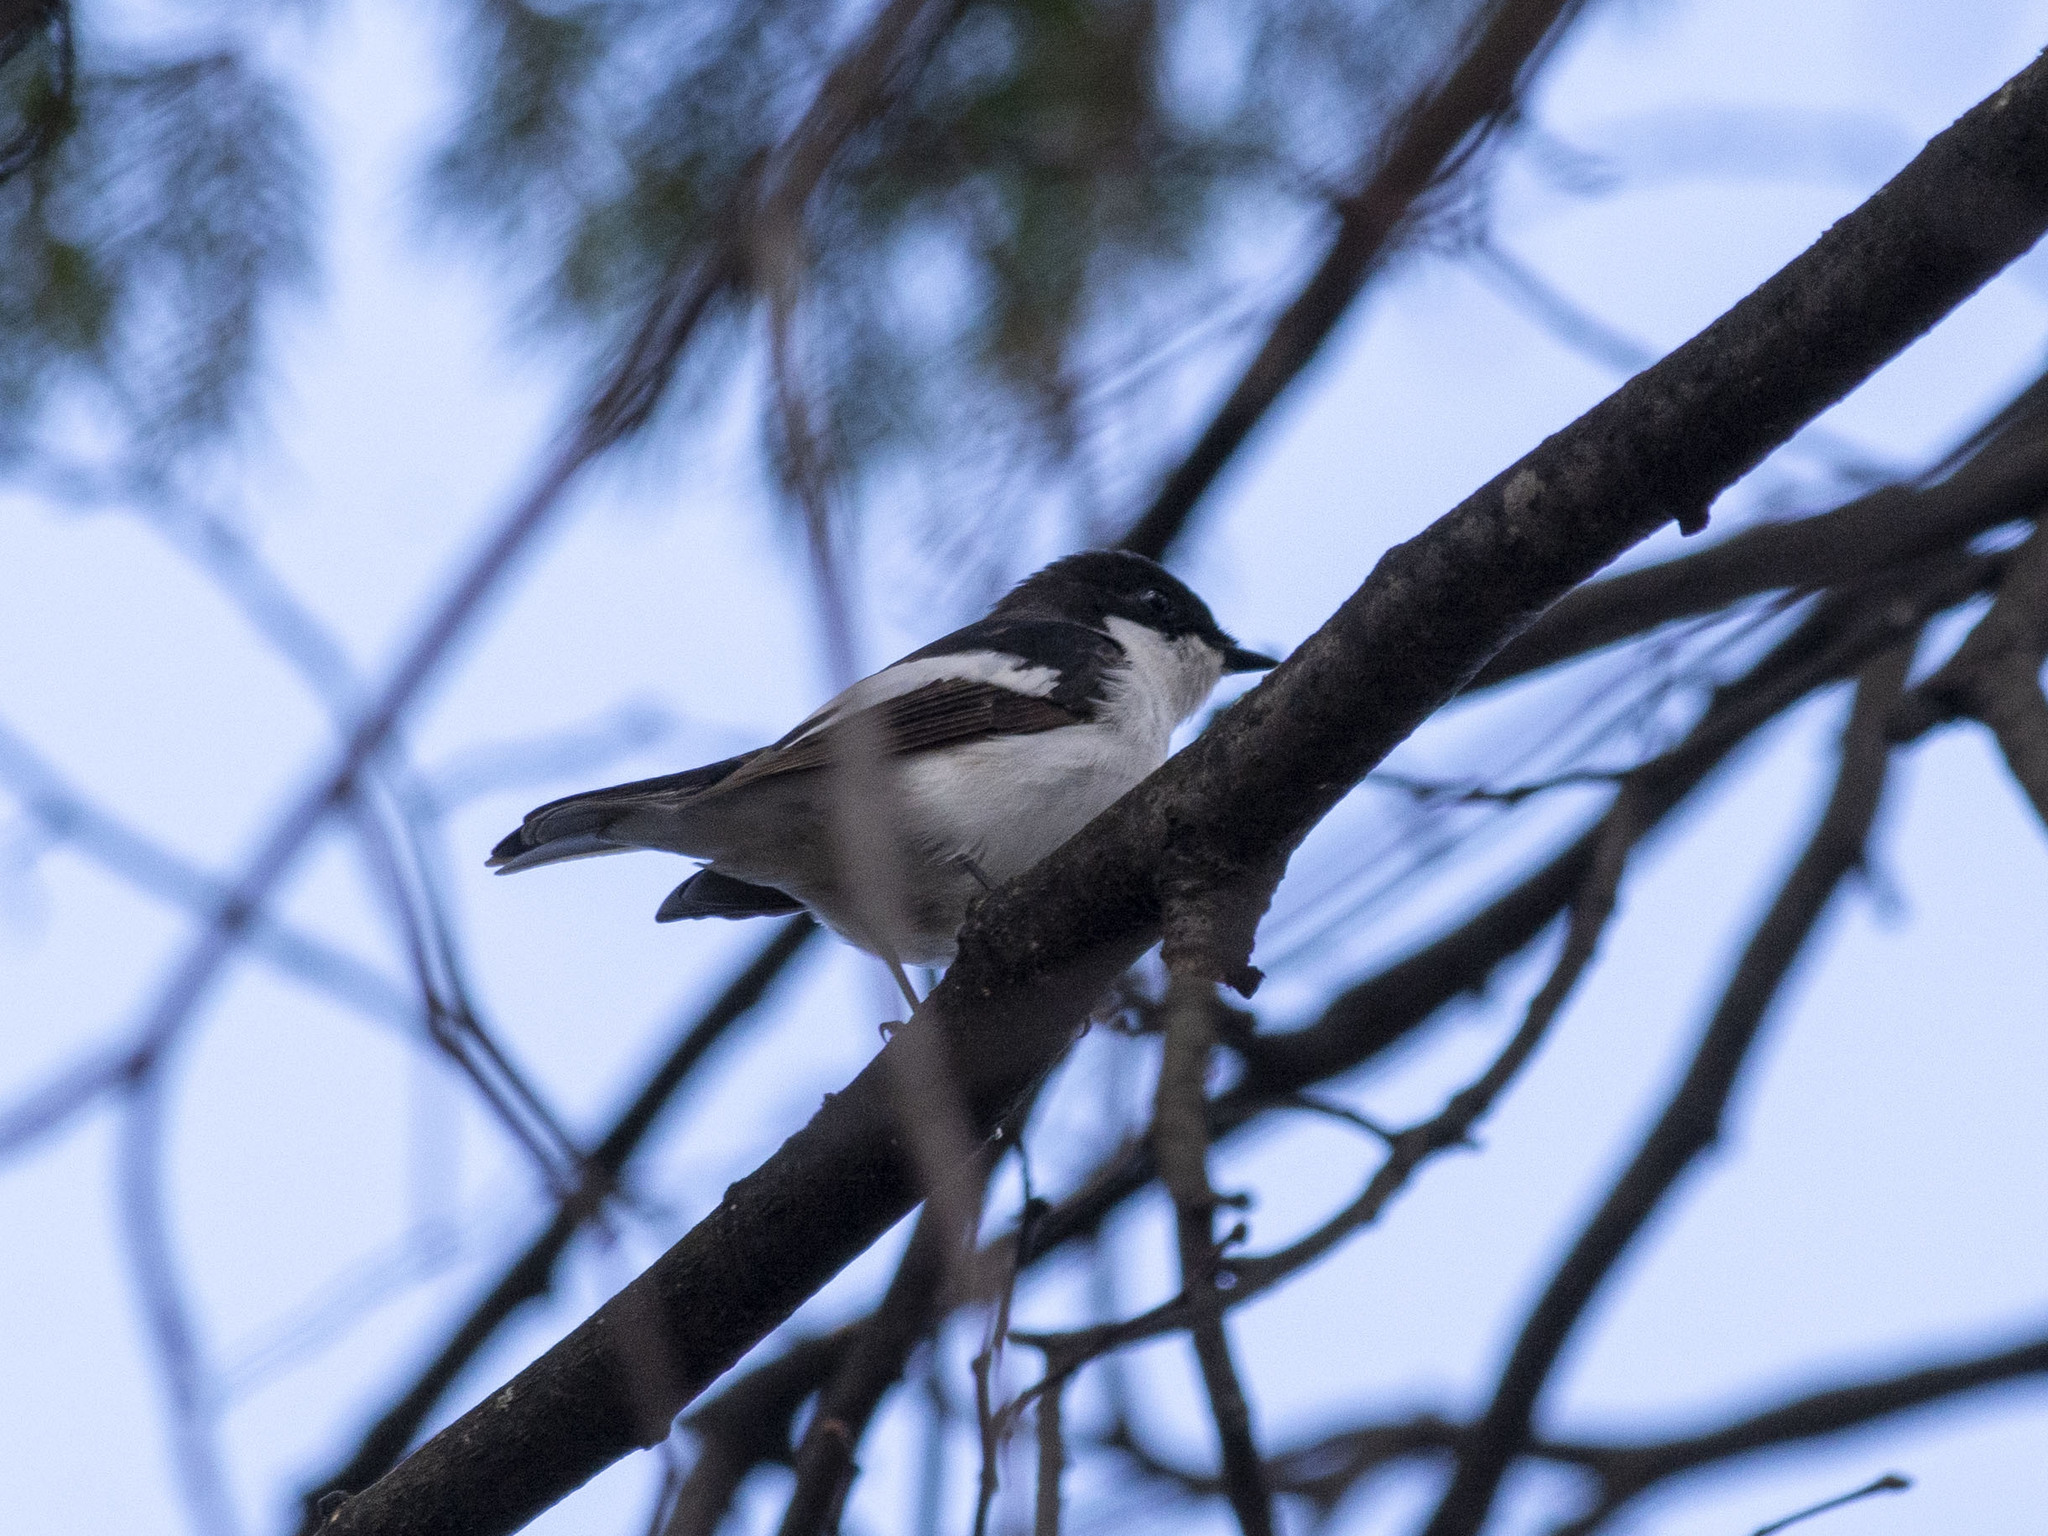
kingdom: Animalia
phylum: Chordata
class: Aves
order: Passeriformes
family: Muscicapidae
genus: Ficedula
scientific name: Ficedula hypoleuca
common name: European pied flycatcher
